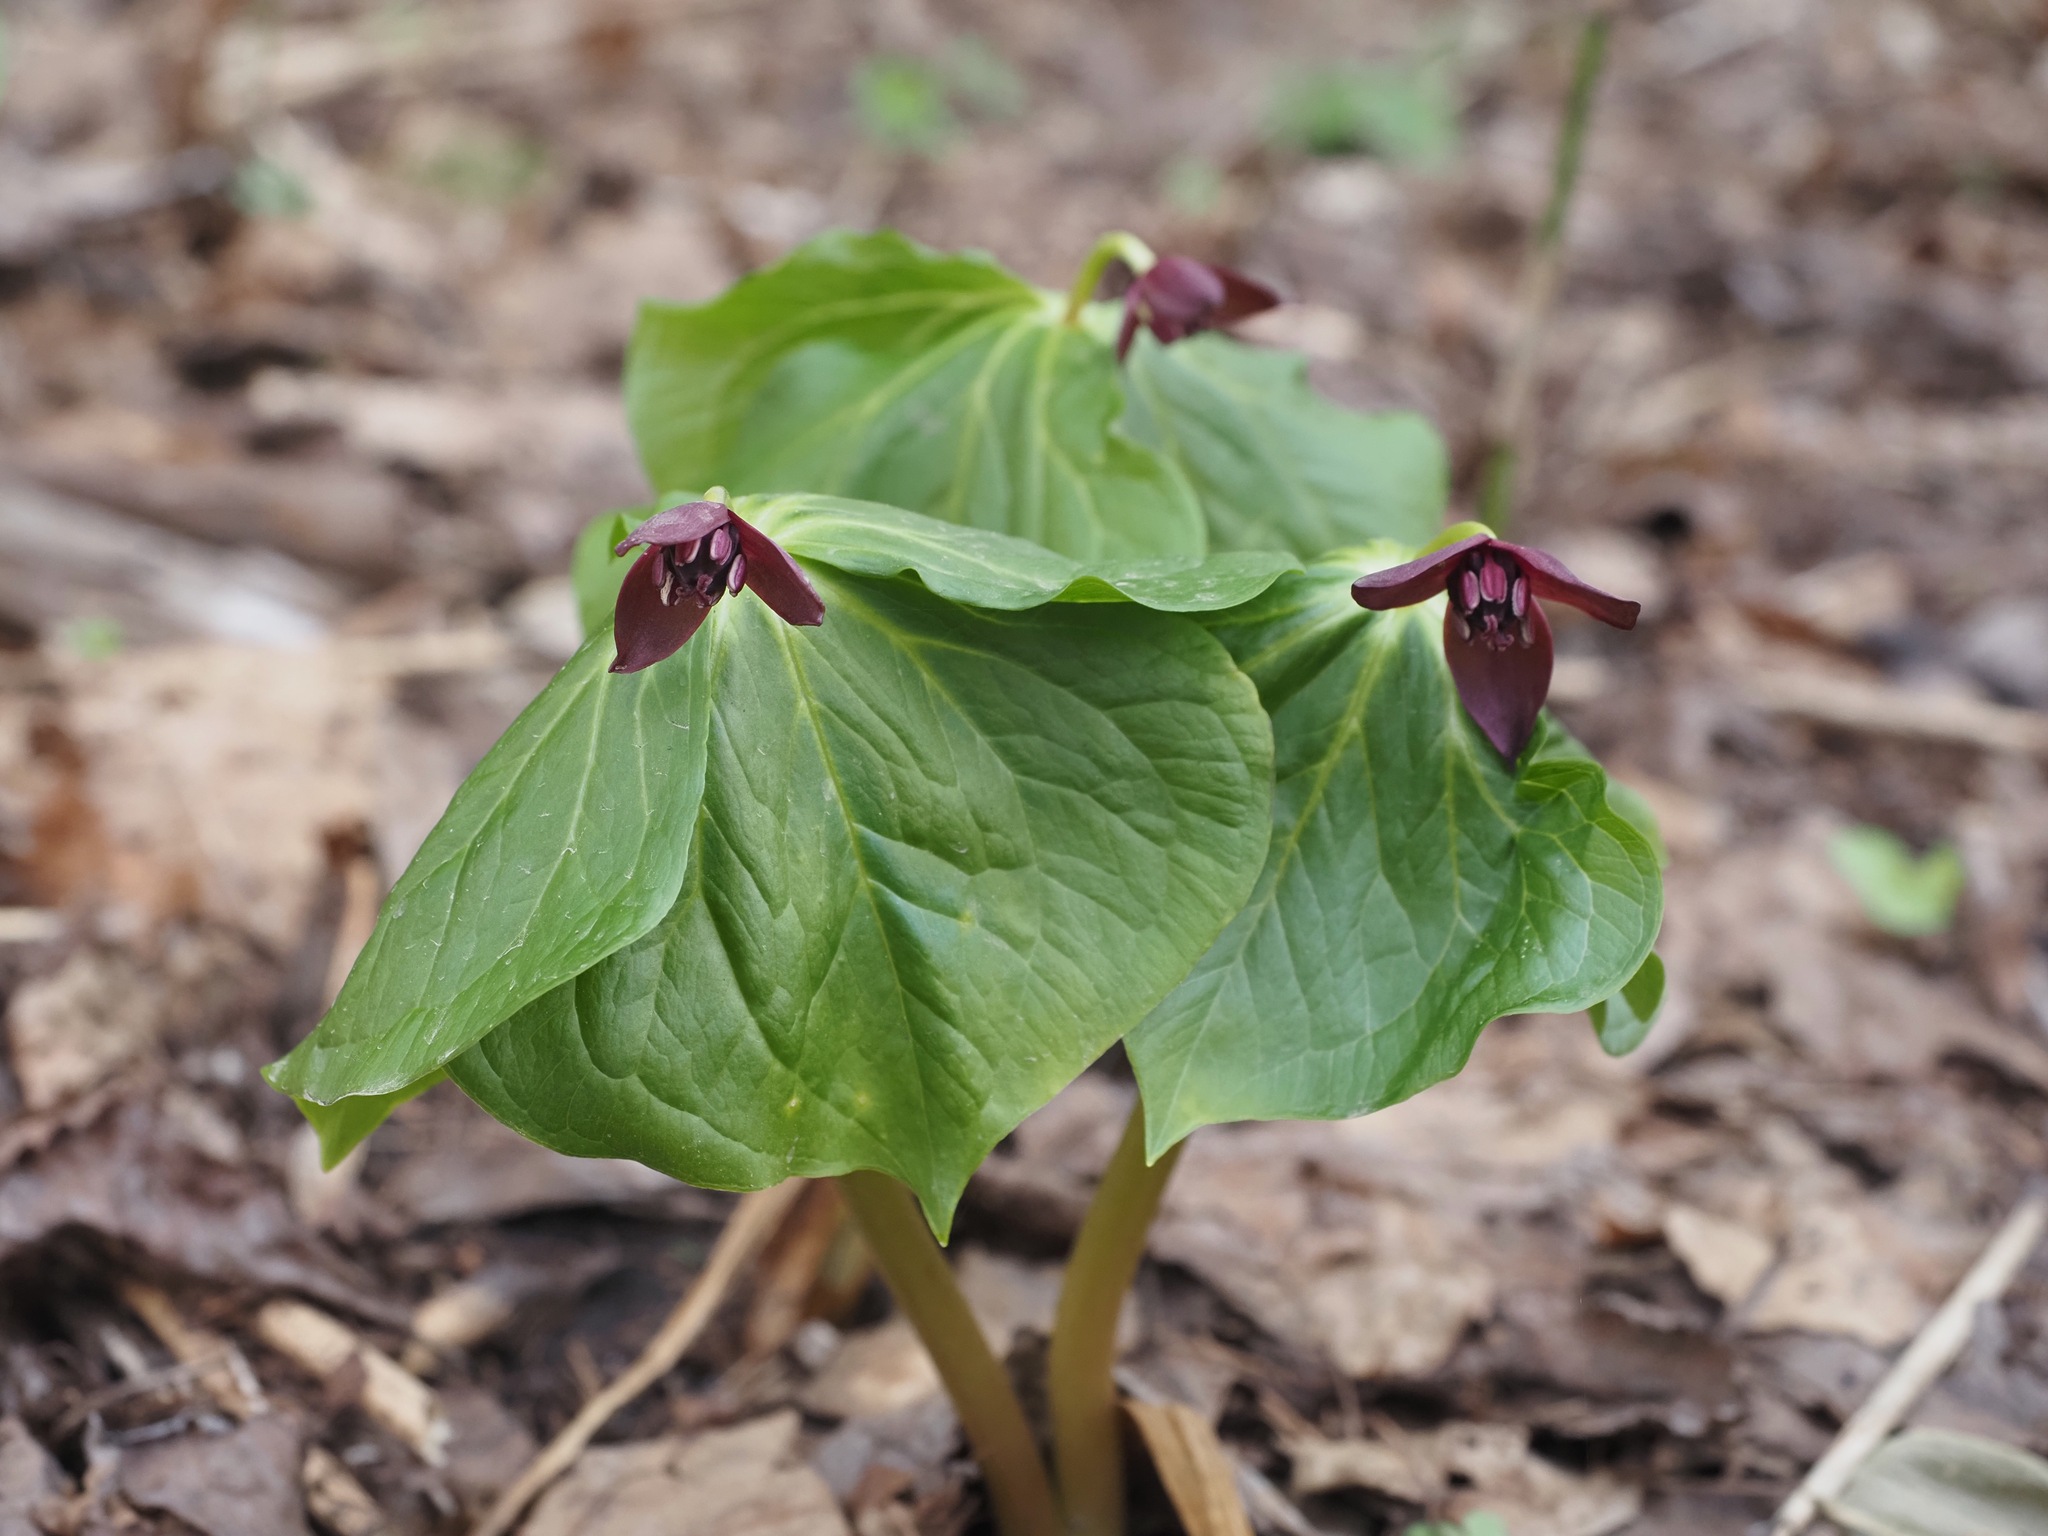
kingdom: Plantae
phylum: Tracheophyta
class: Liliopsida
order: Liliales
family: Melanthiaceae
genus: Trillium
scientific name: Trillium apetalon
